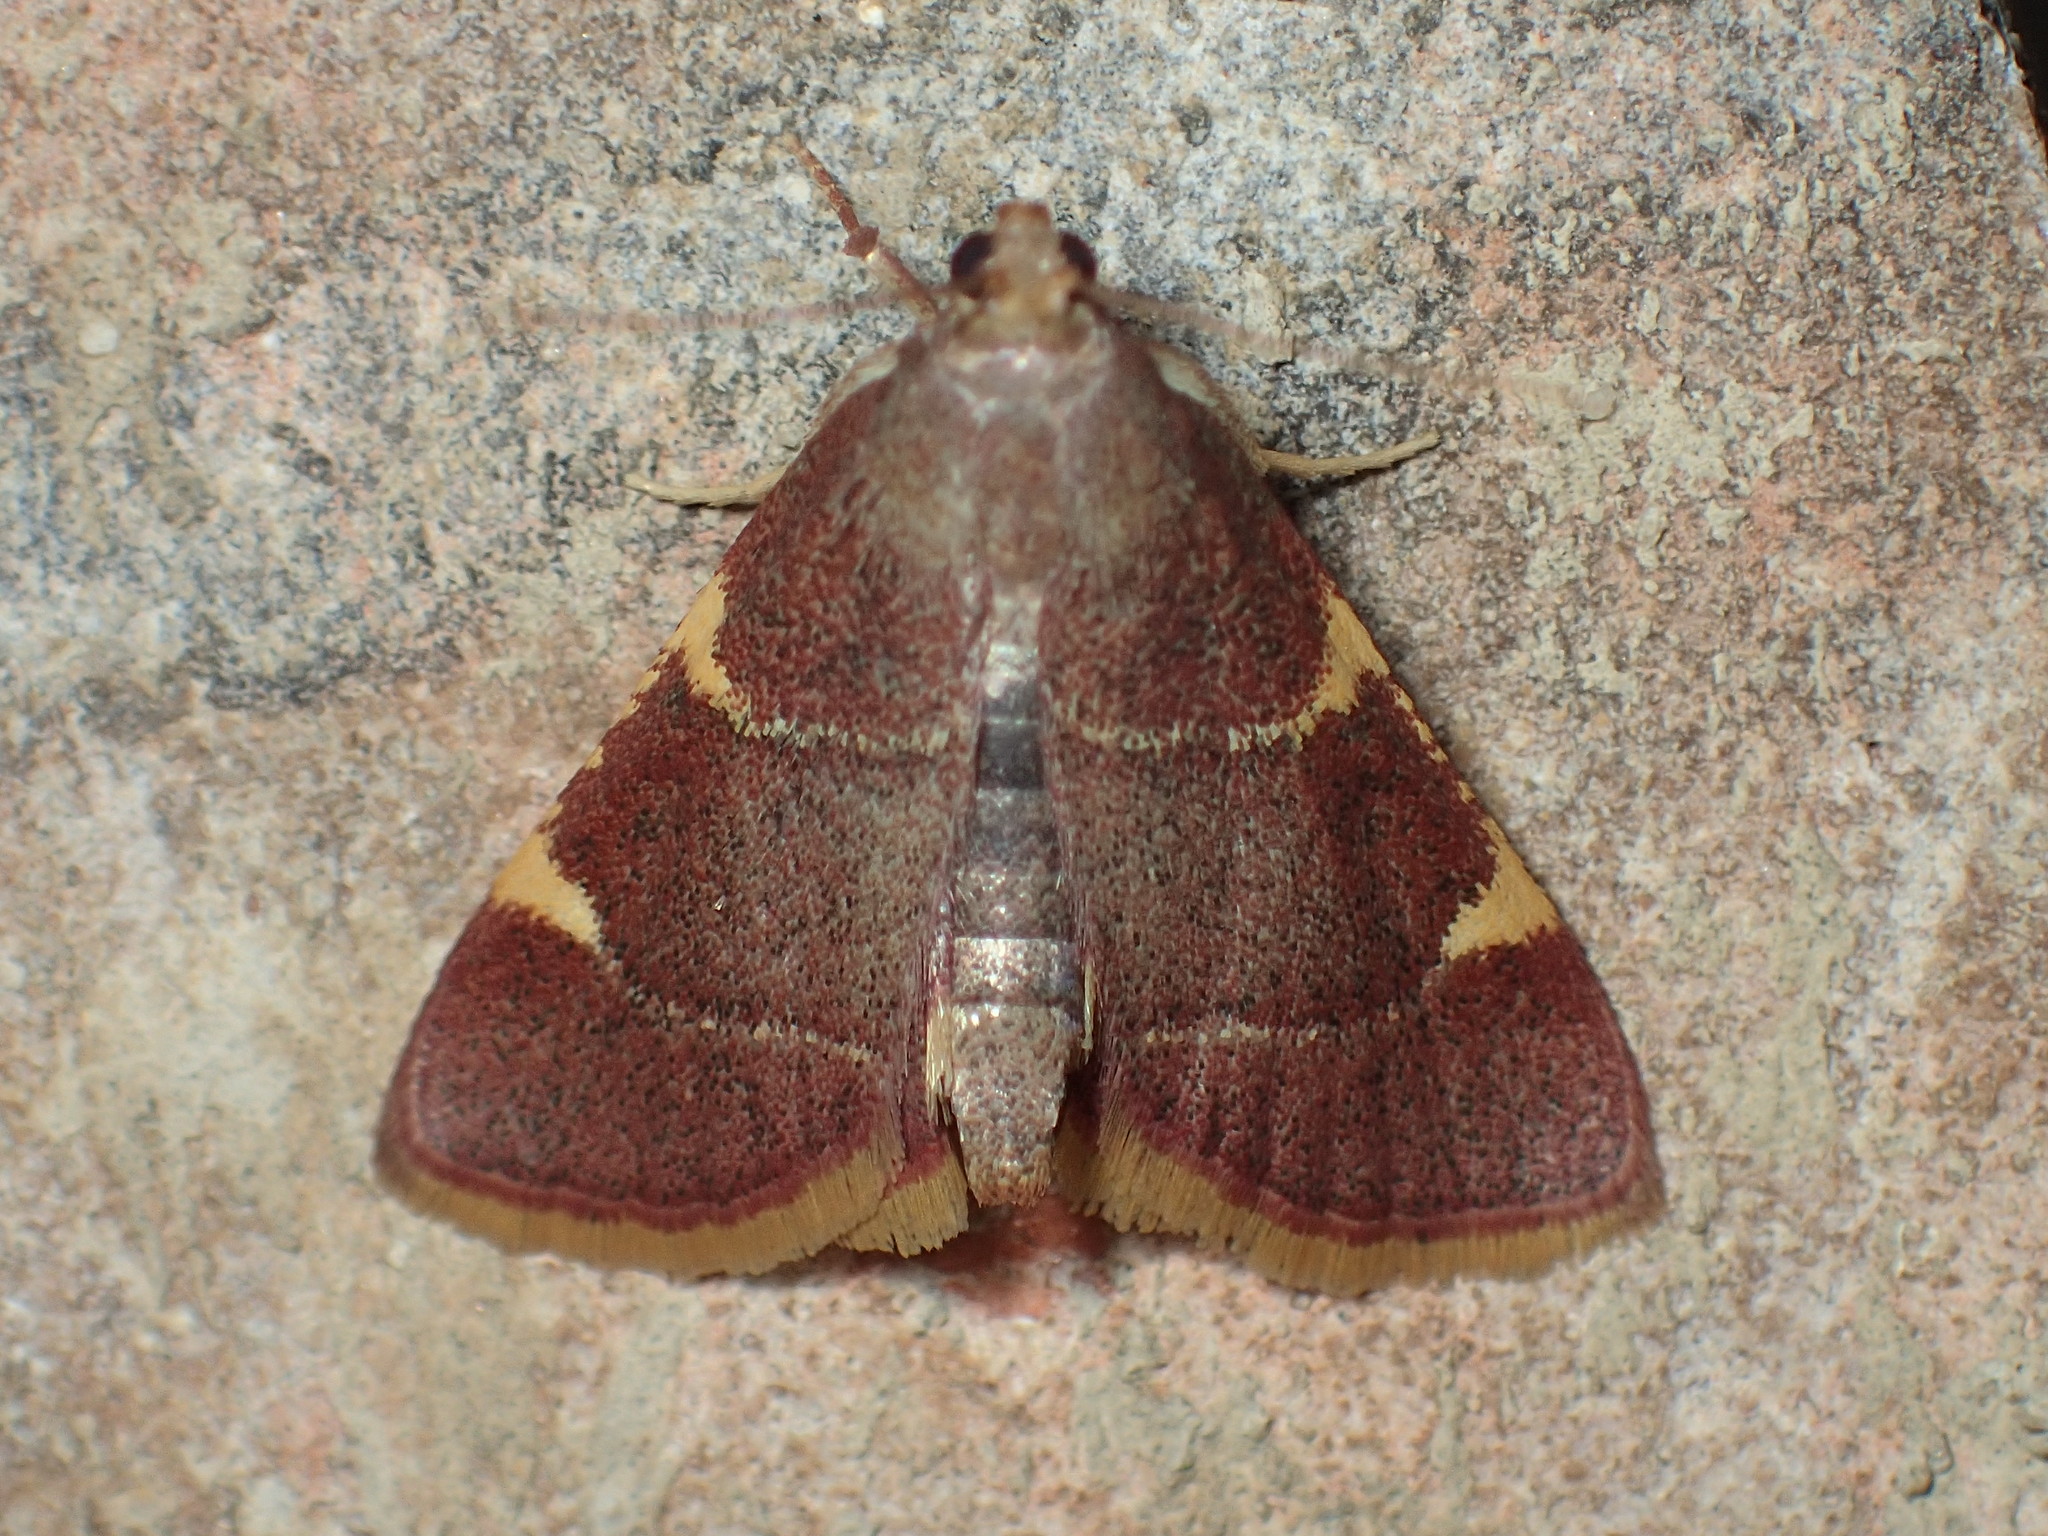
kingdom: Animalia
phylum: Arthropoda
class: Insecta
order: Lepidoptera
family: Pyralidae
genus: Hypsopygia
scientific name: Hypsopygia olinalis
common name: Yellow-fringed dolichomia moth
